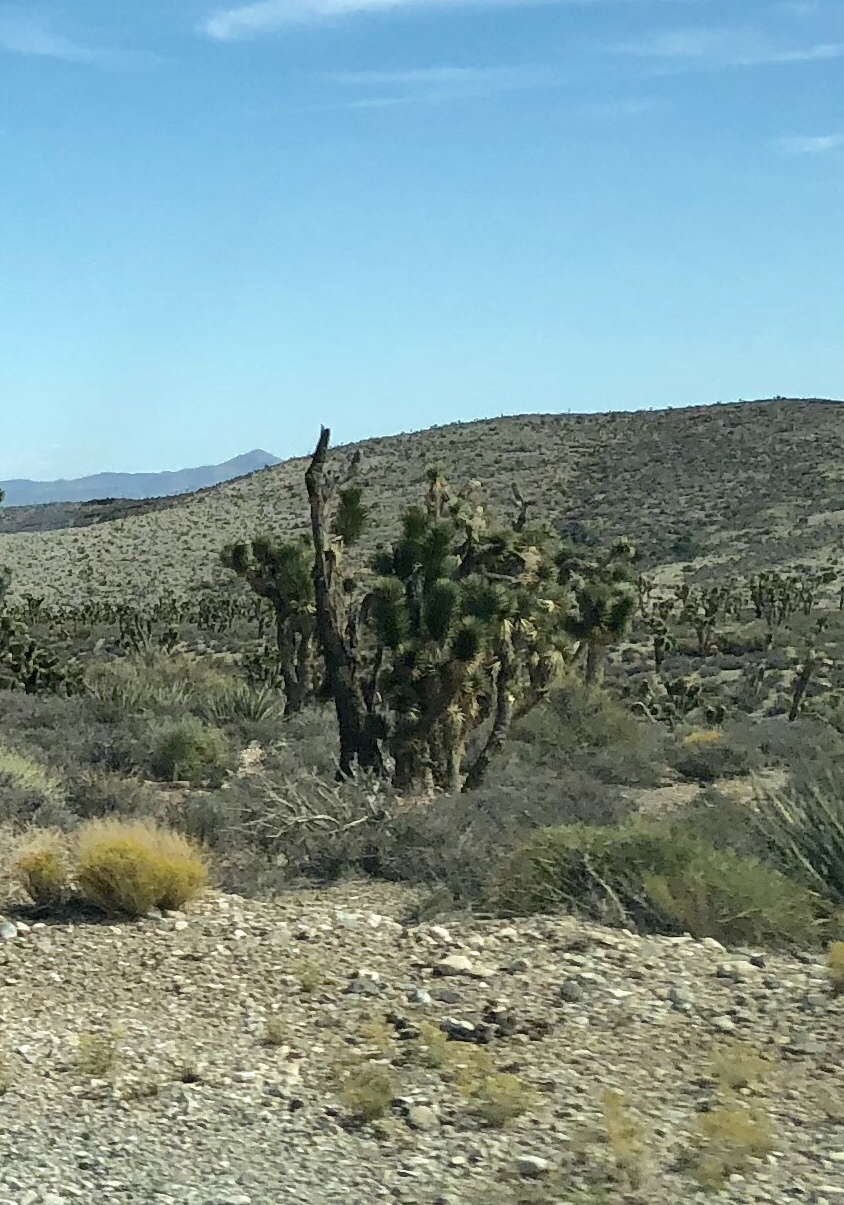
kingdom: Plantae
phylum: Tracheophyta
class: Liliopsida
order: Asparagales
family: Asparagaceae
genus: Yucca
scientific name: Yucca brevifolia
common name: Joshua tree
